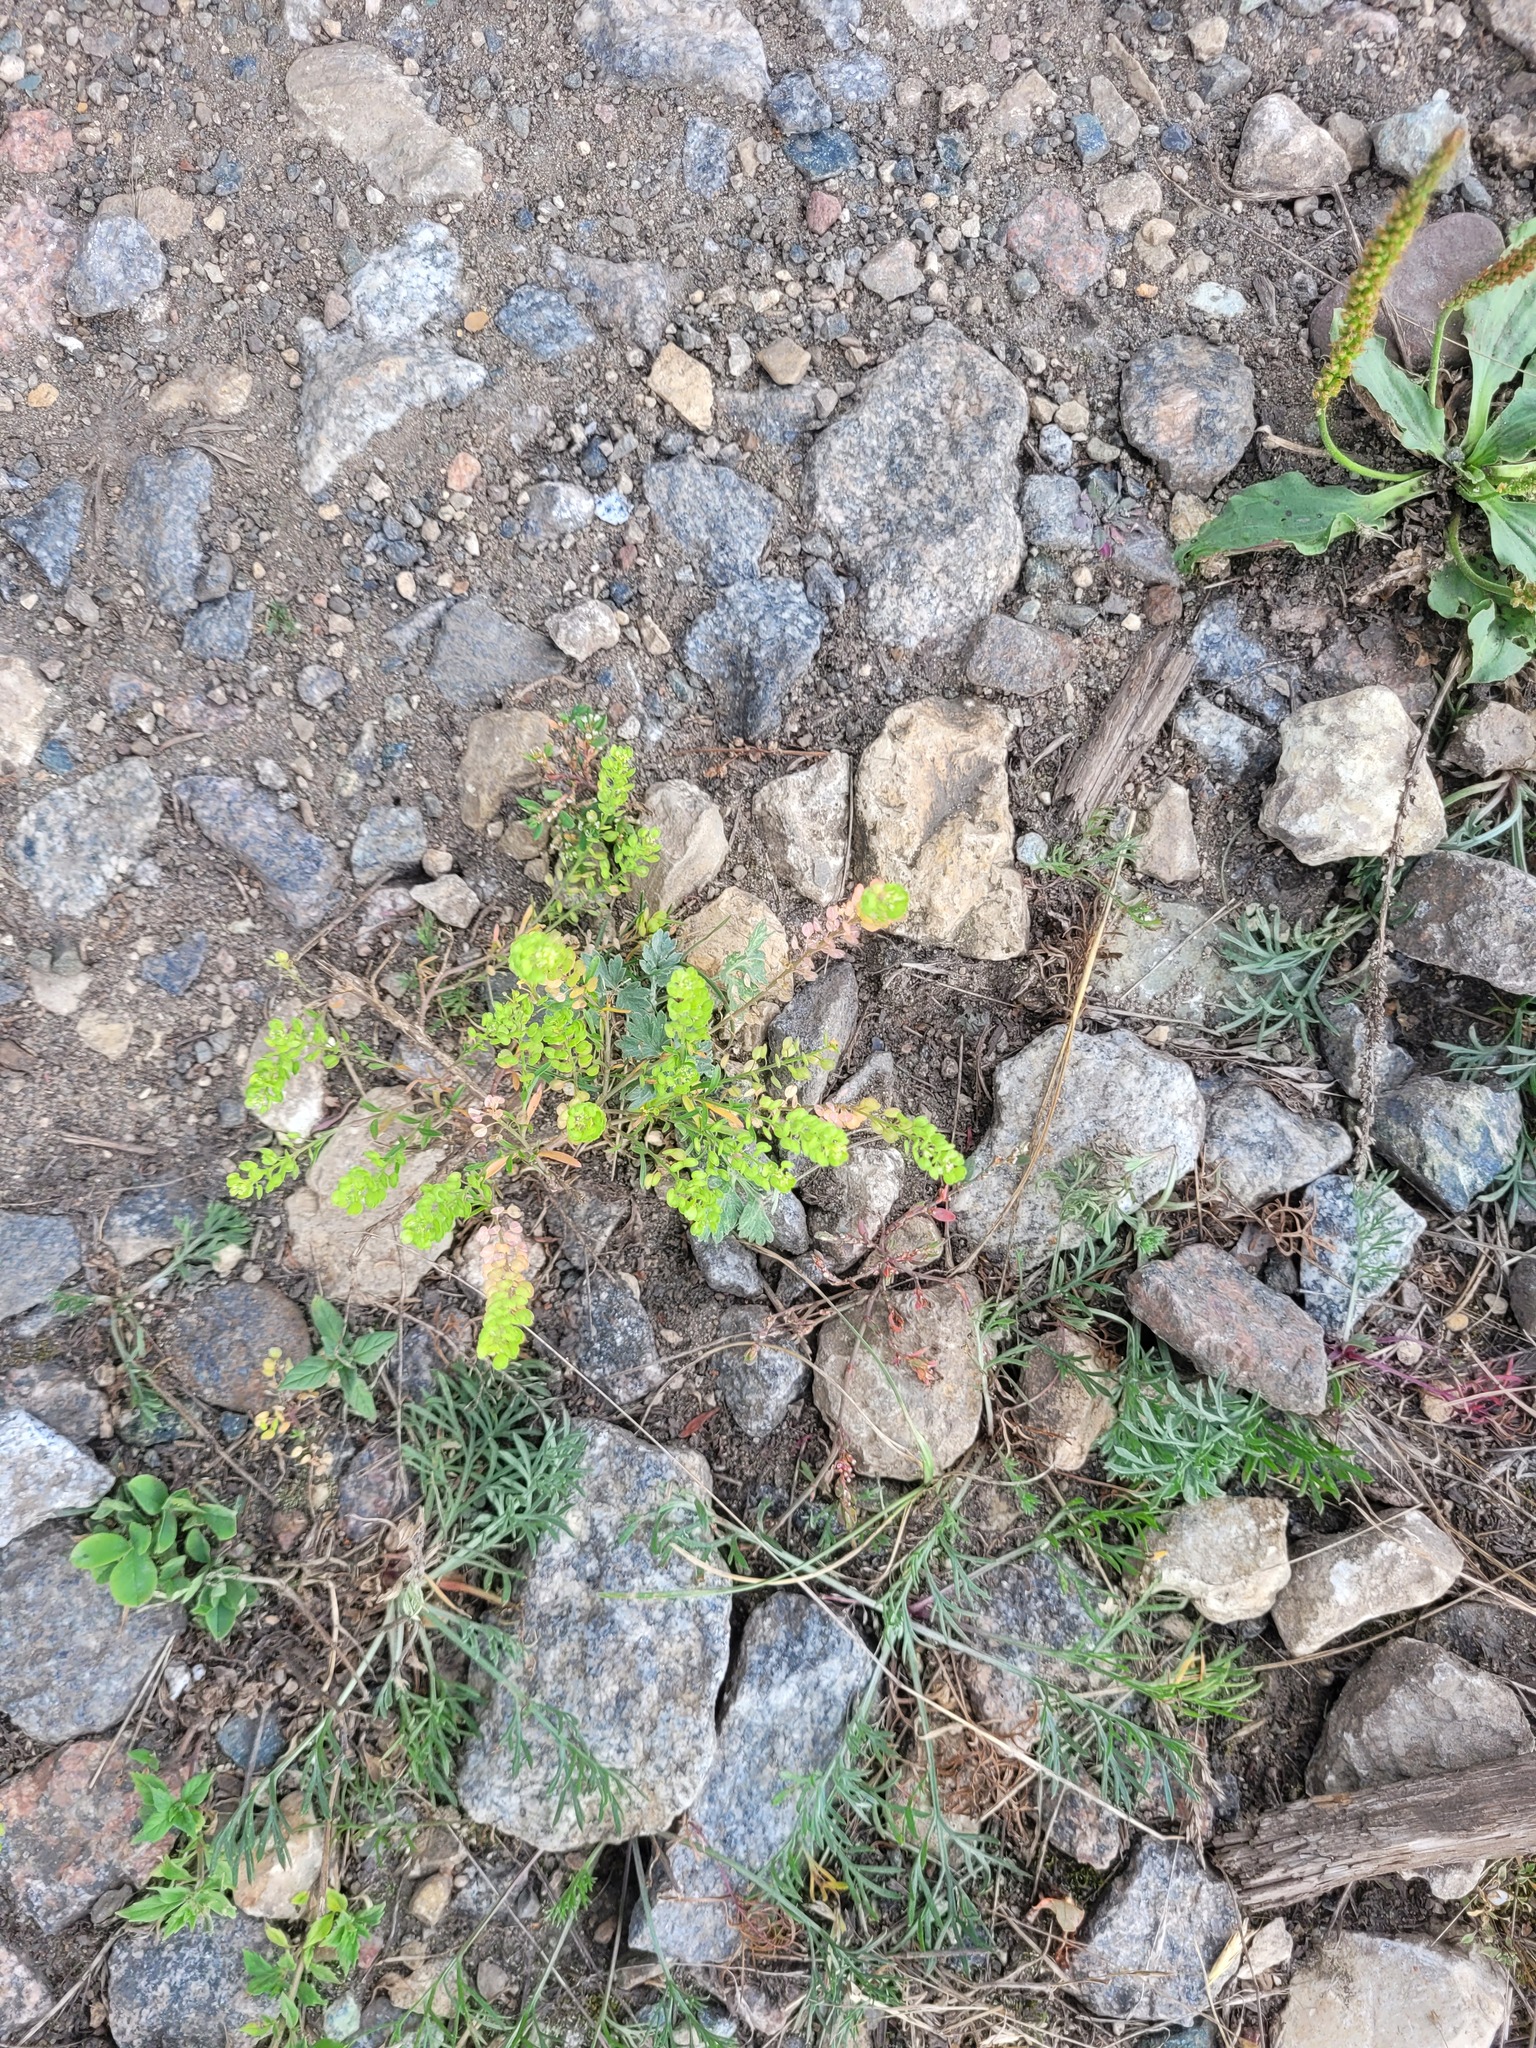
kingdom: Plantae
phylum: Tracheophyta
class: Magnoliopsida
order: Brassicales
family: Brassicaceae
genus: Lepidium
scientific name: Lepidium densiflorum
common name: Miner's pepperwort
